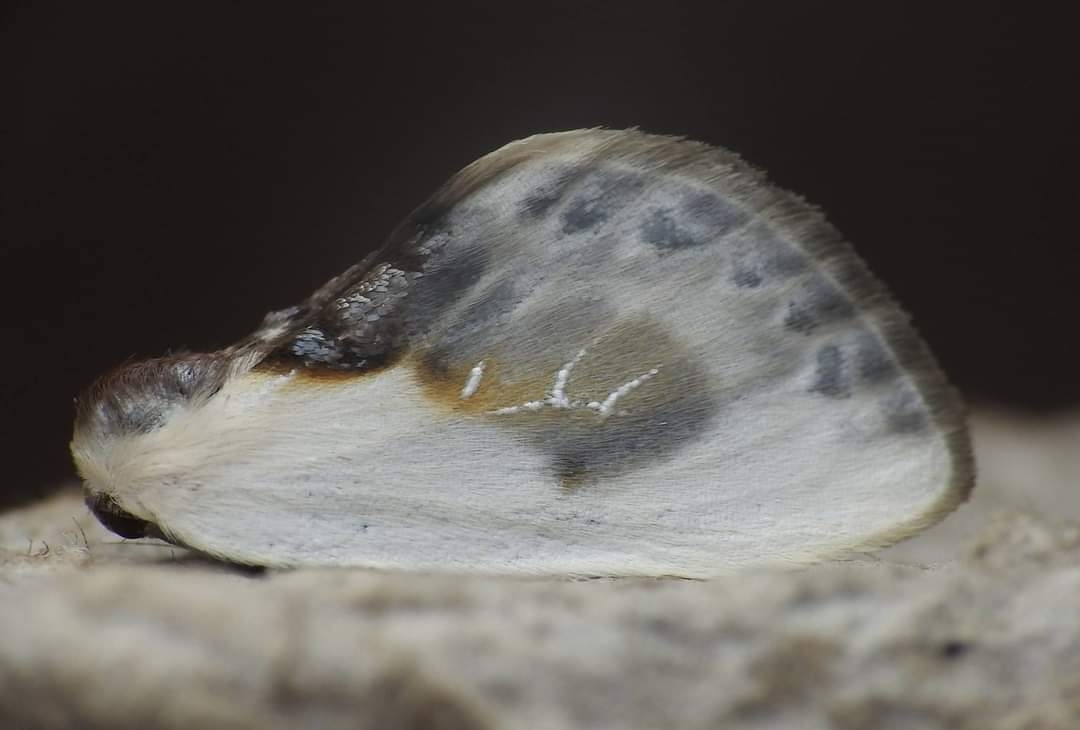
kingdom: Animalia
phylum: Arthropoda
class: Insecta
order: Lepidoptera
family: Drepanidae
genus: Cilix
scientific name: Cilix glaucata
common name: Chinese character
